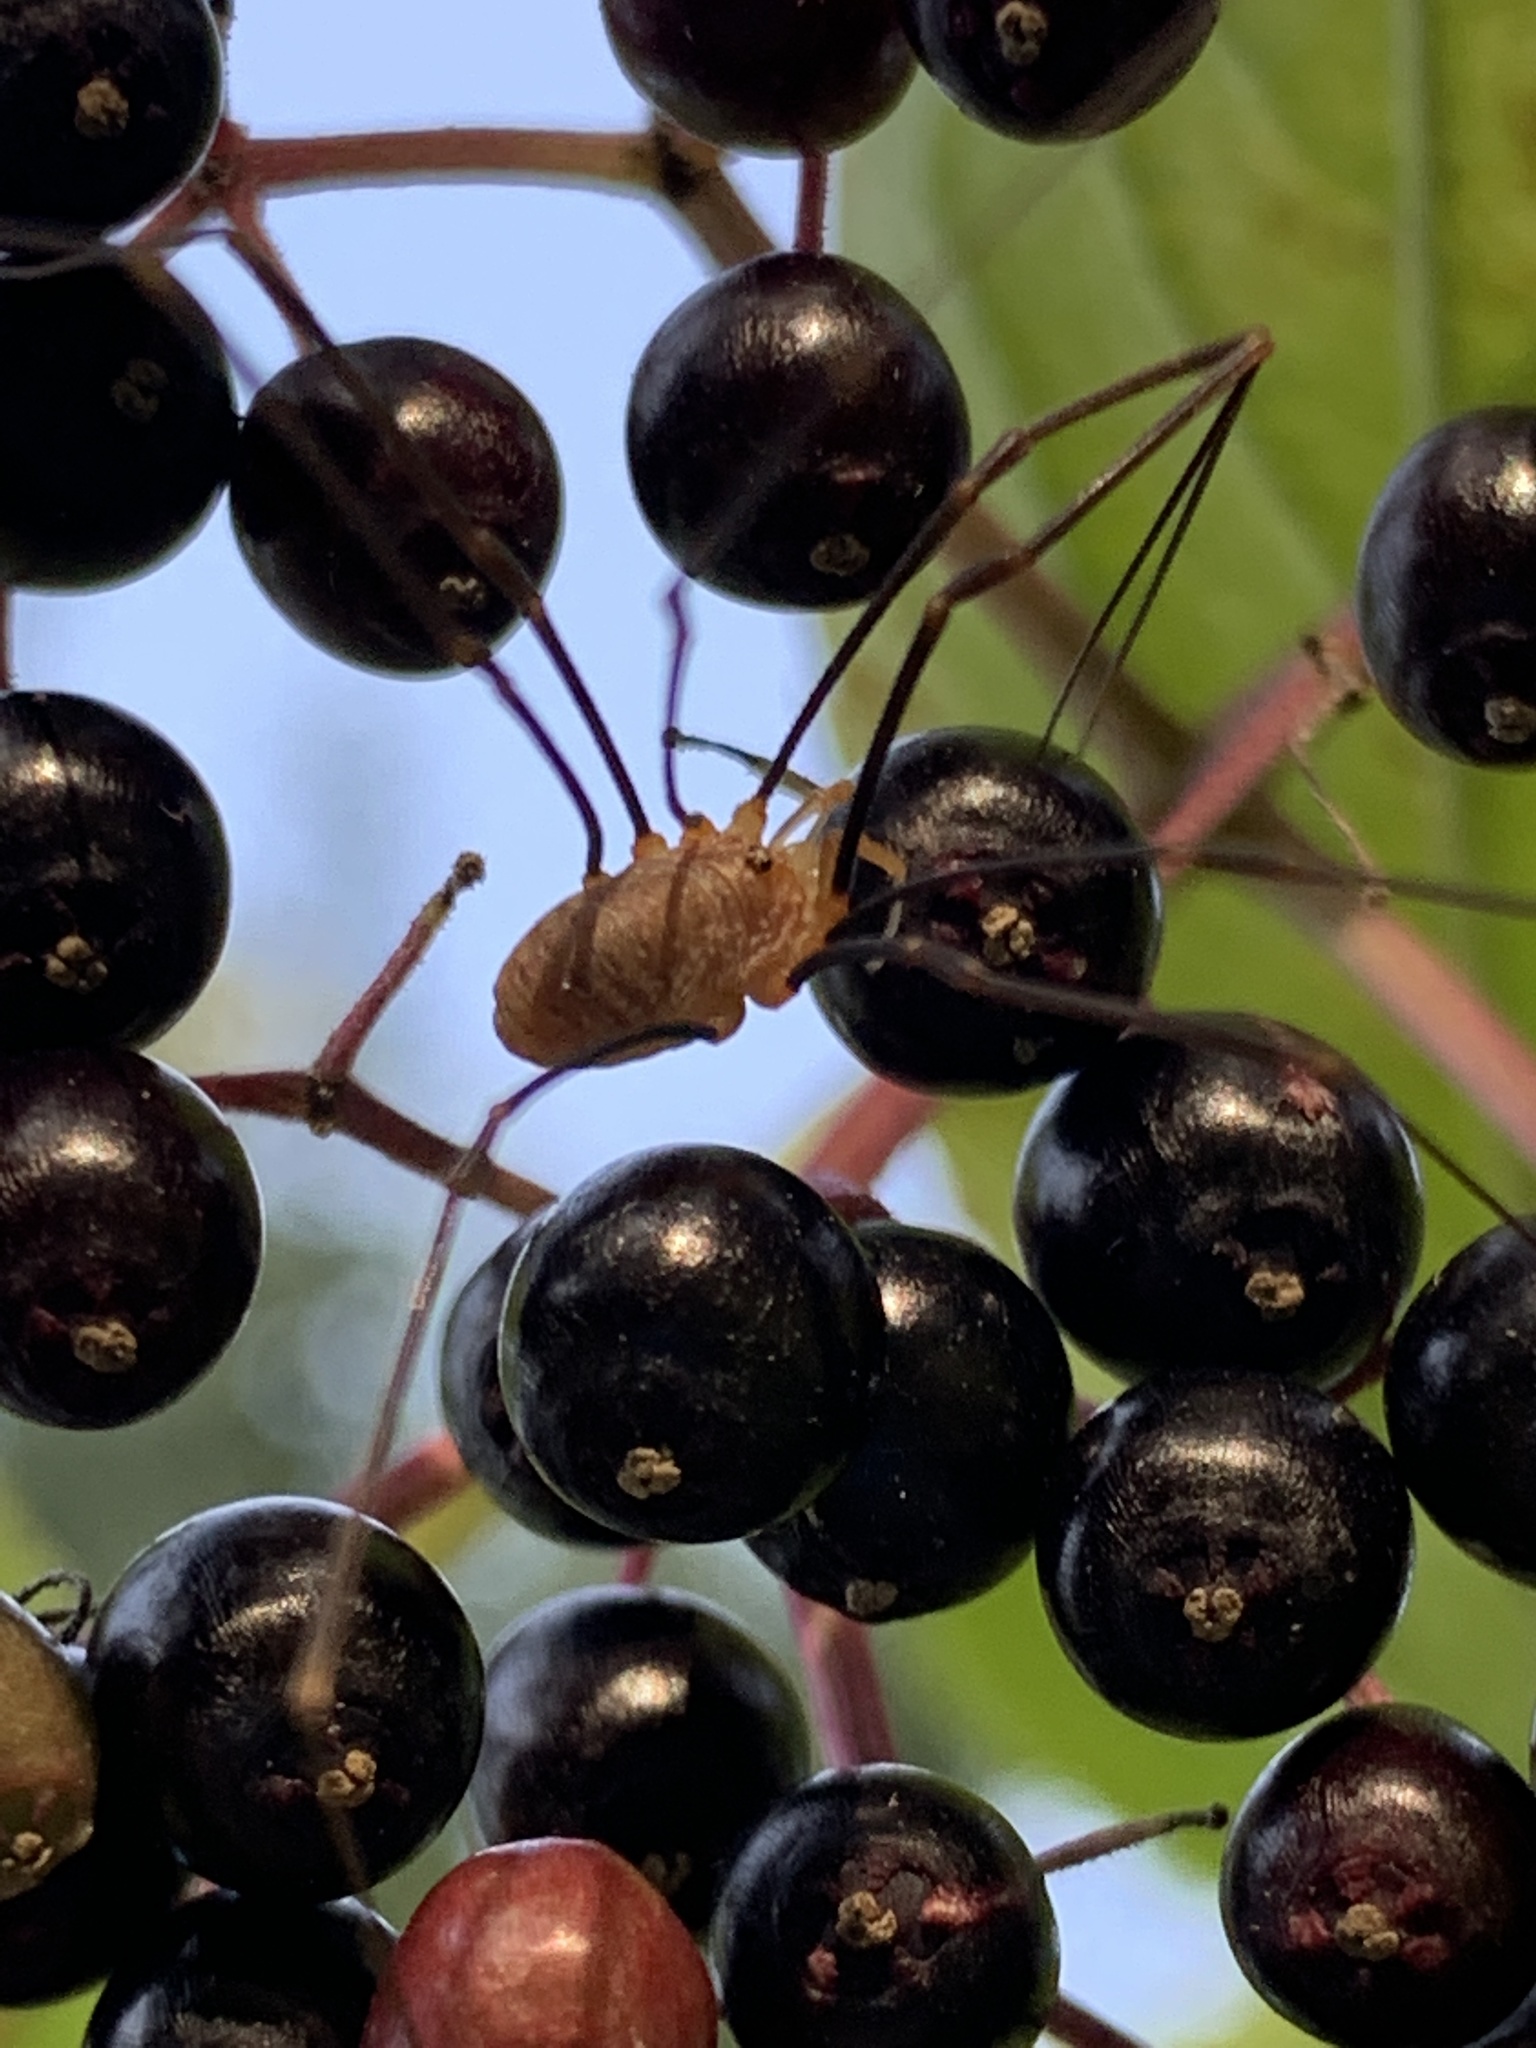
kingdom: Animalia
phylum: Arthropoda
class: Arachnida
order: Opiliones
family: Phalangiidae
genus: Opilio
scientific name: Opilio canestrinii
